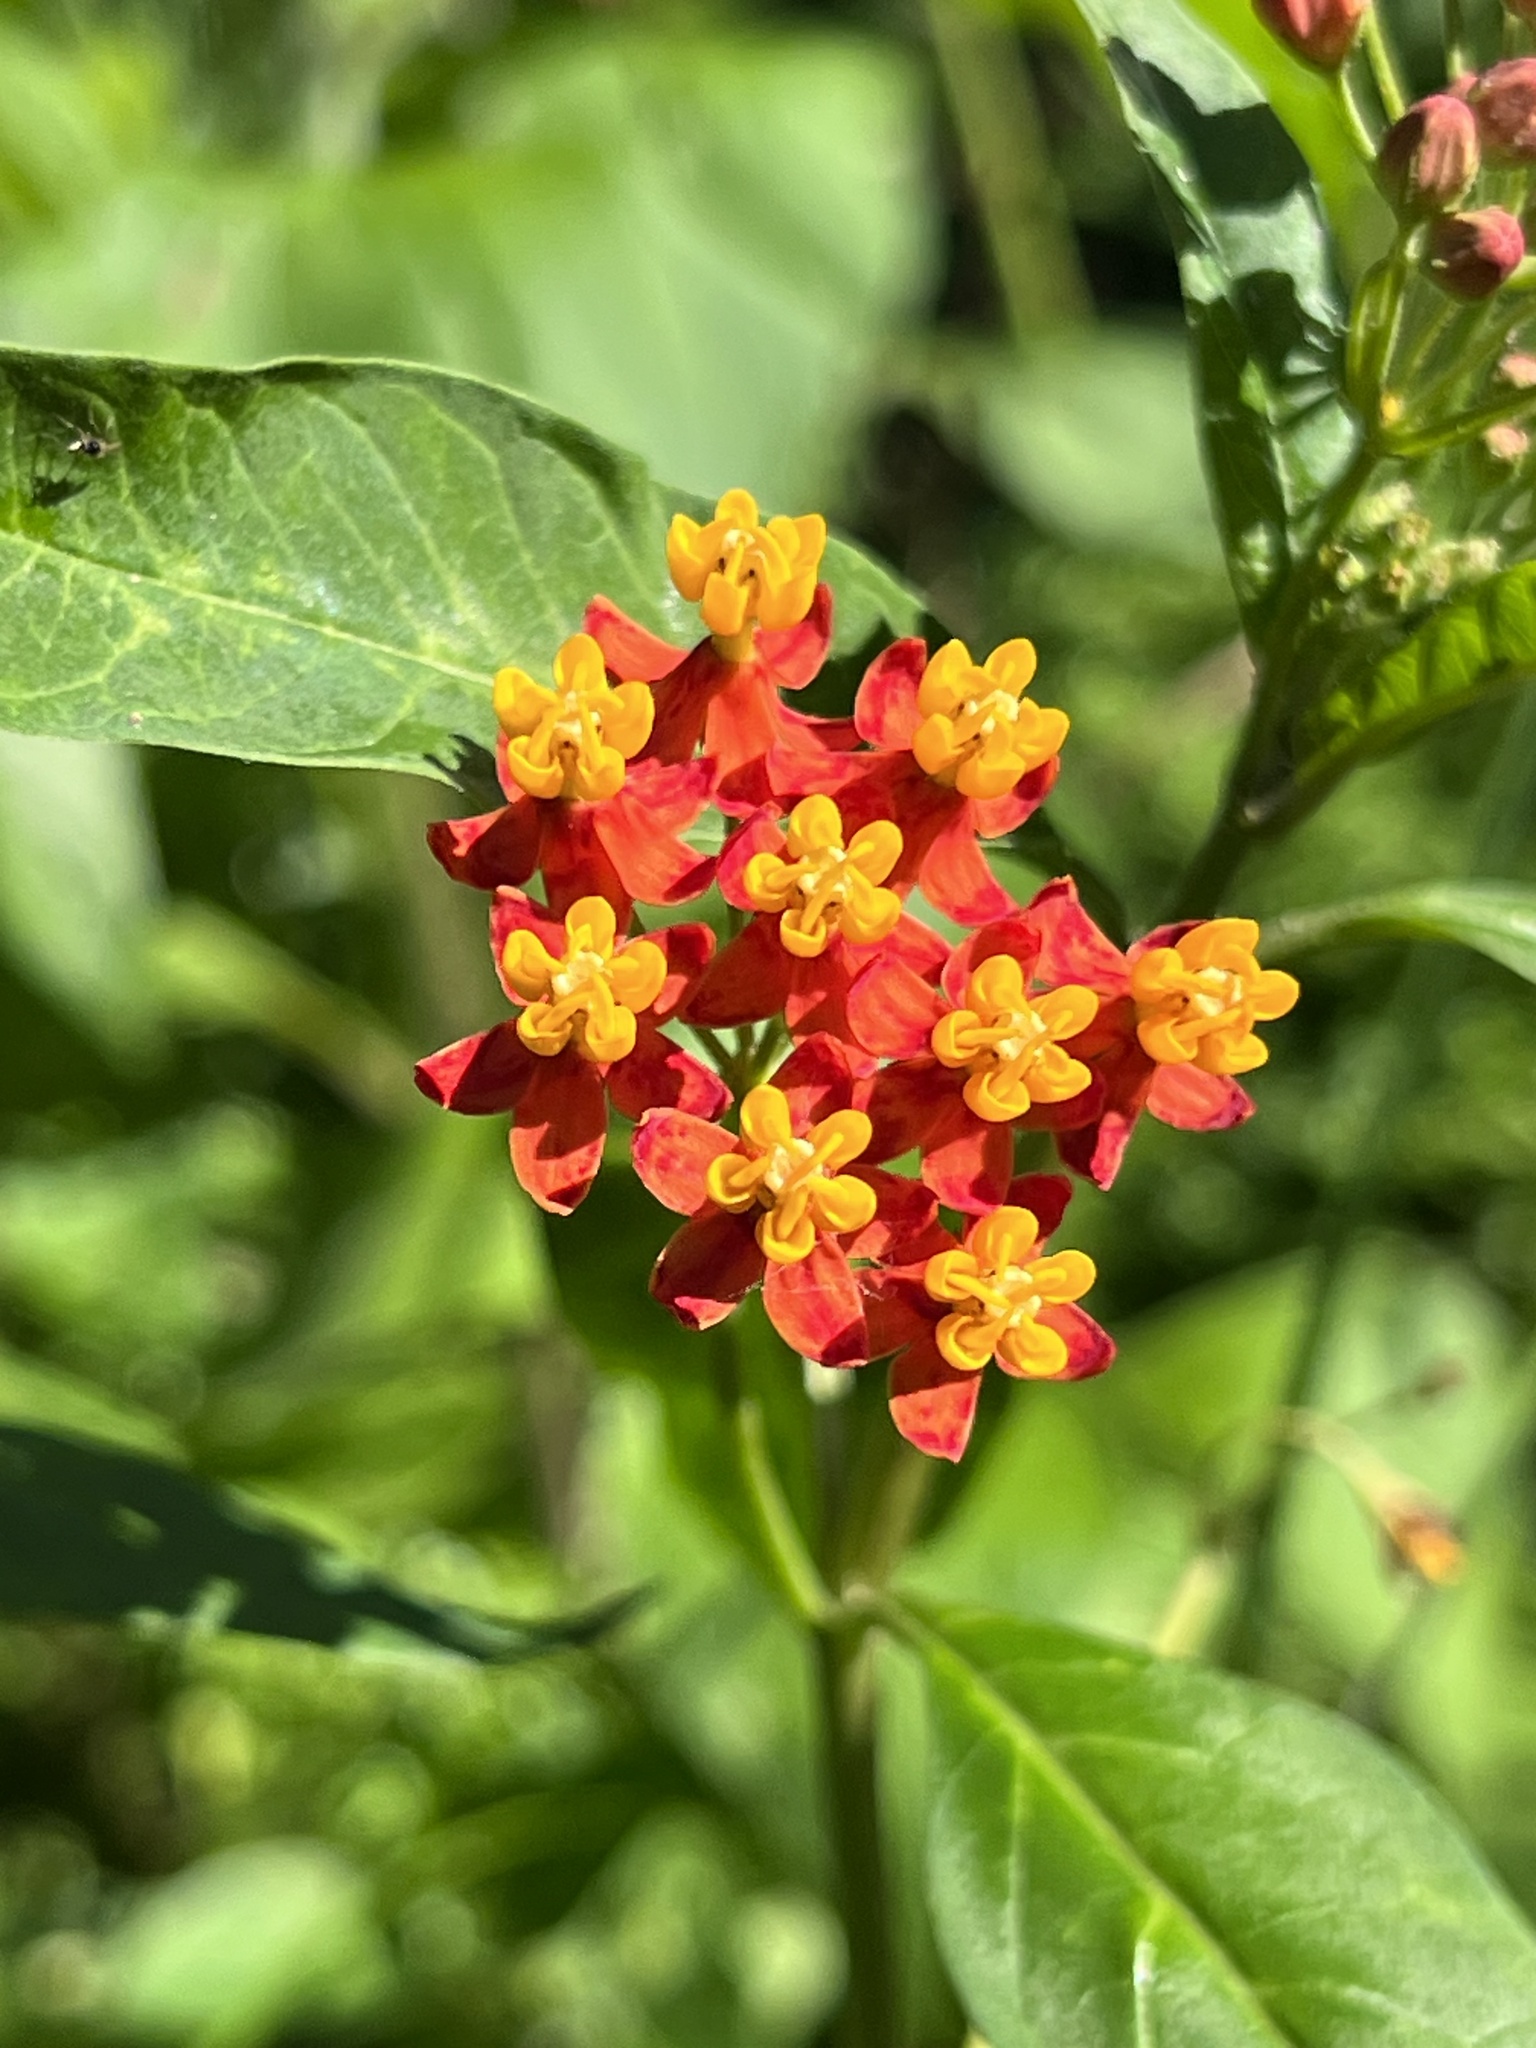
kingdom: Plantae
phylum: Tracheophyta
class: Magnoliopsida
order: Gentianales
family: Apocynaceae
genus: Asclepias
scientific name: Asclepias curassavica
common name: Bloodflower
